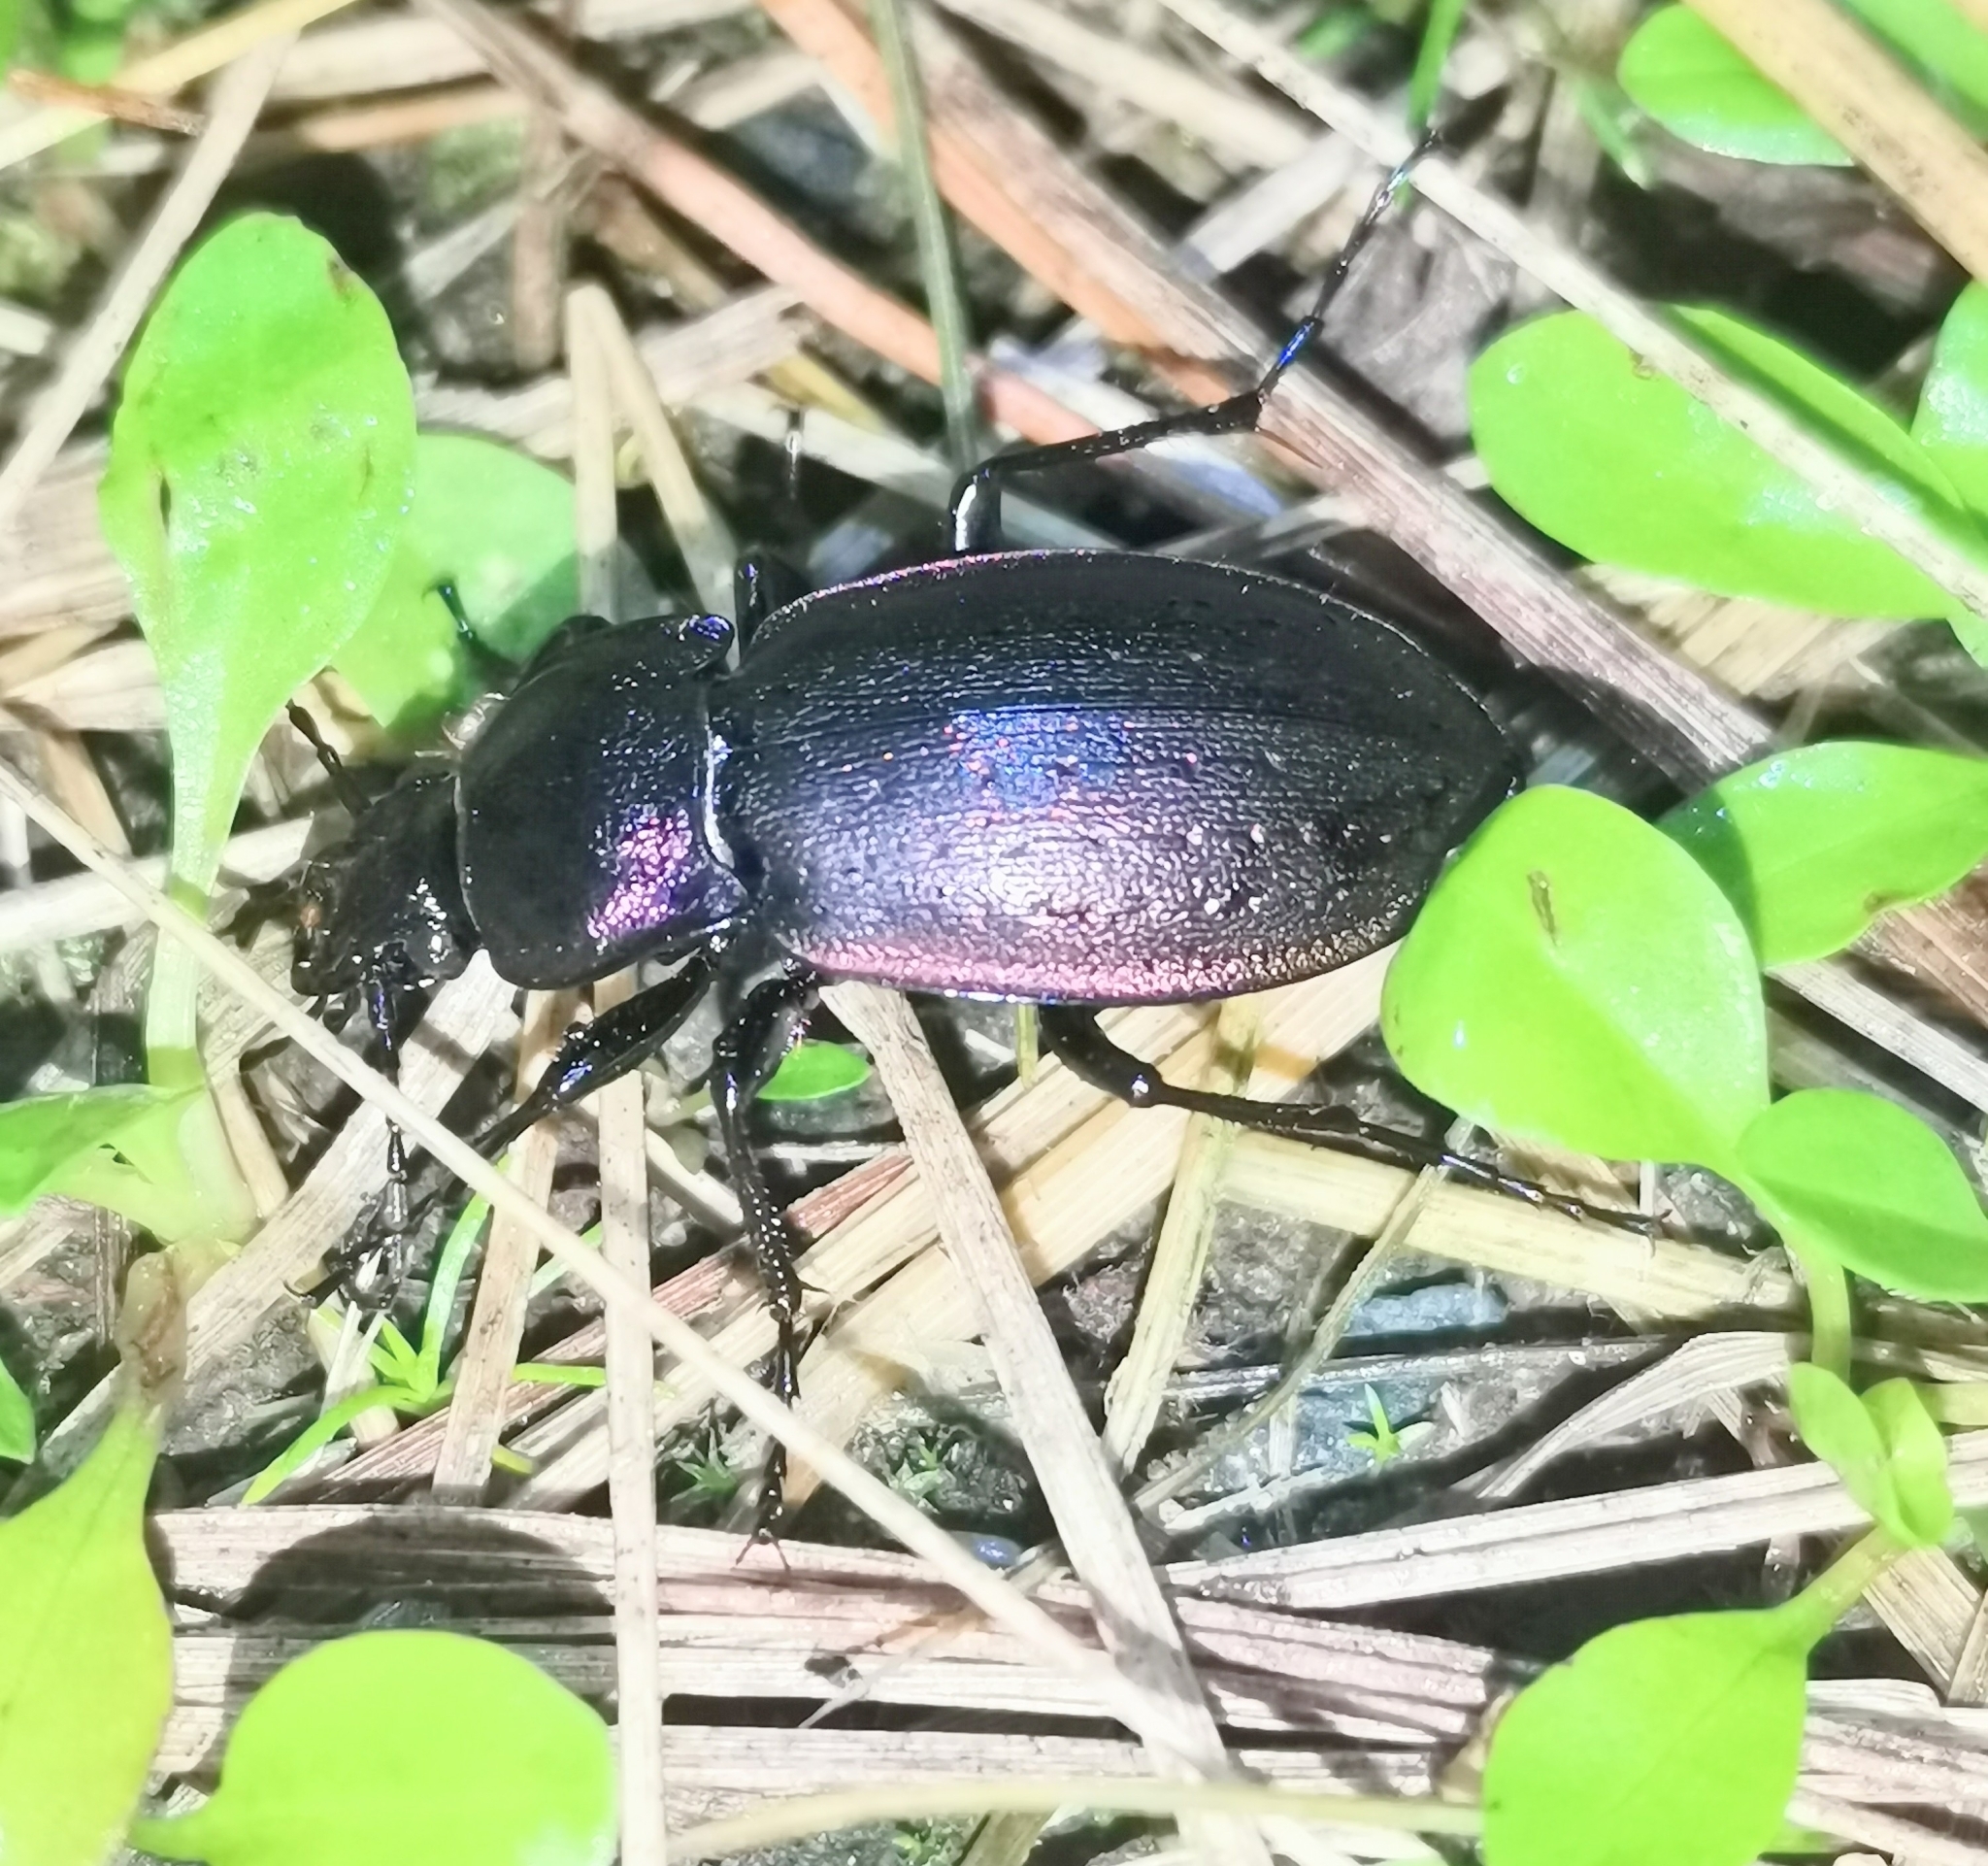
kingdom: Animalia
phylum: Arthropoda
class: Insecta
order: Coleoptera
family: Carabidae
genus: Carabus
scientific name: Carabus nemoralis
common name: European ground beetle
